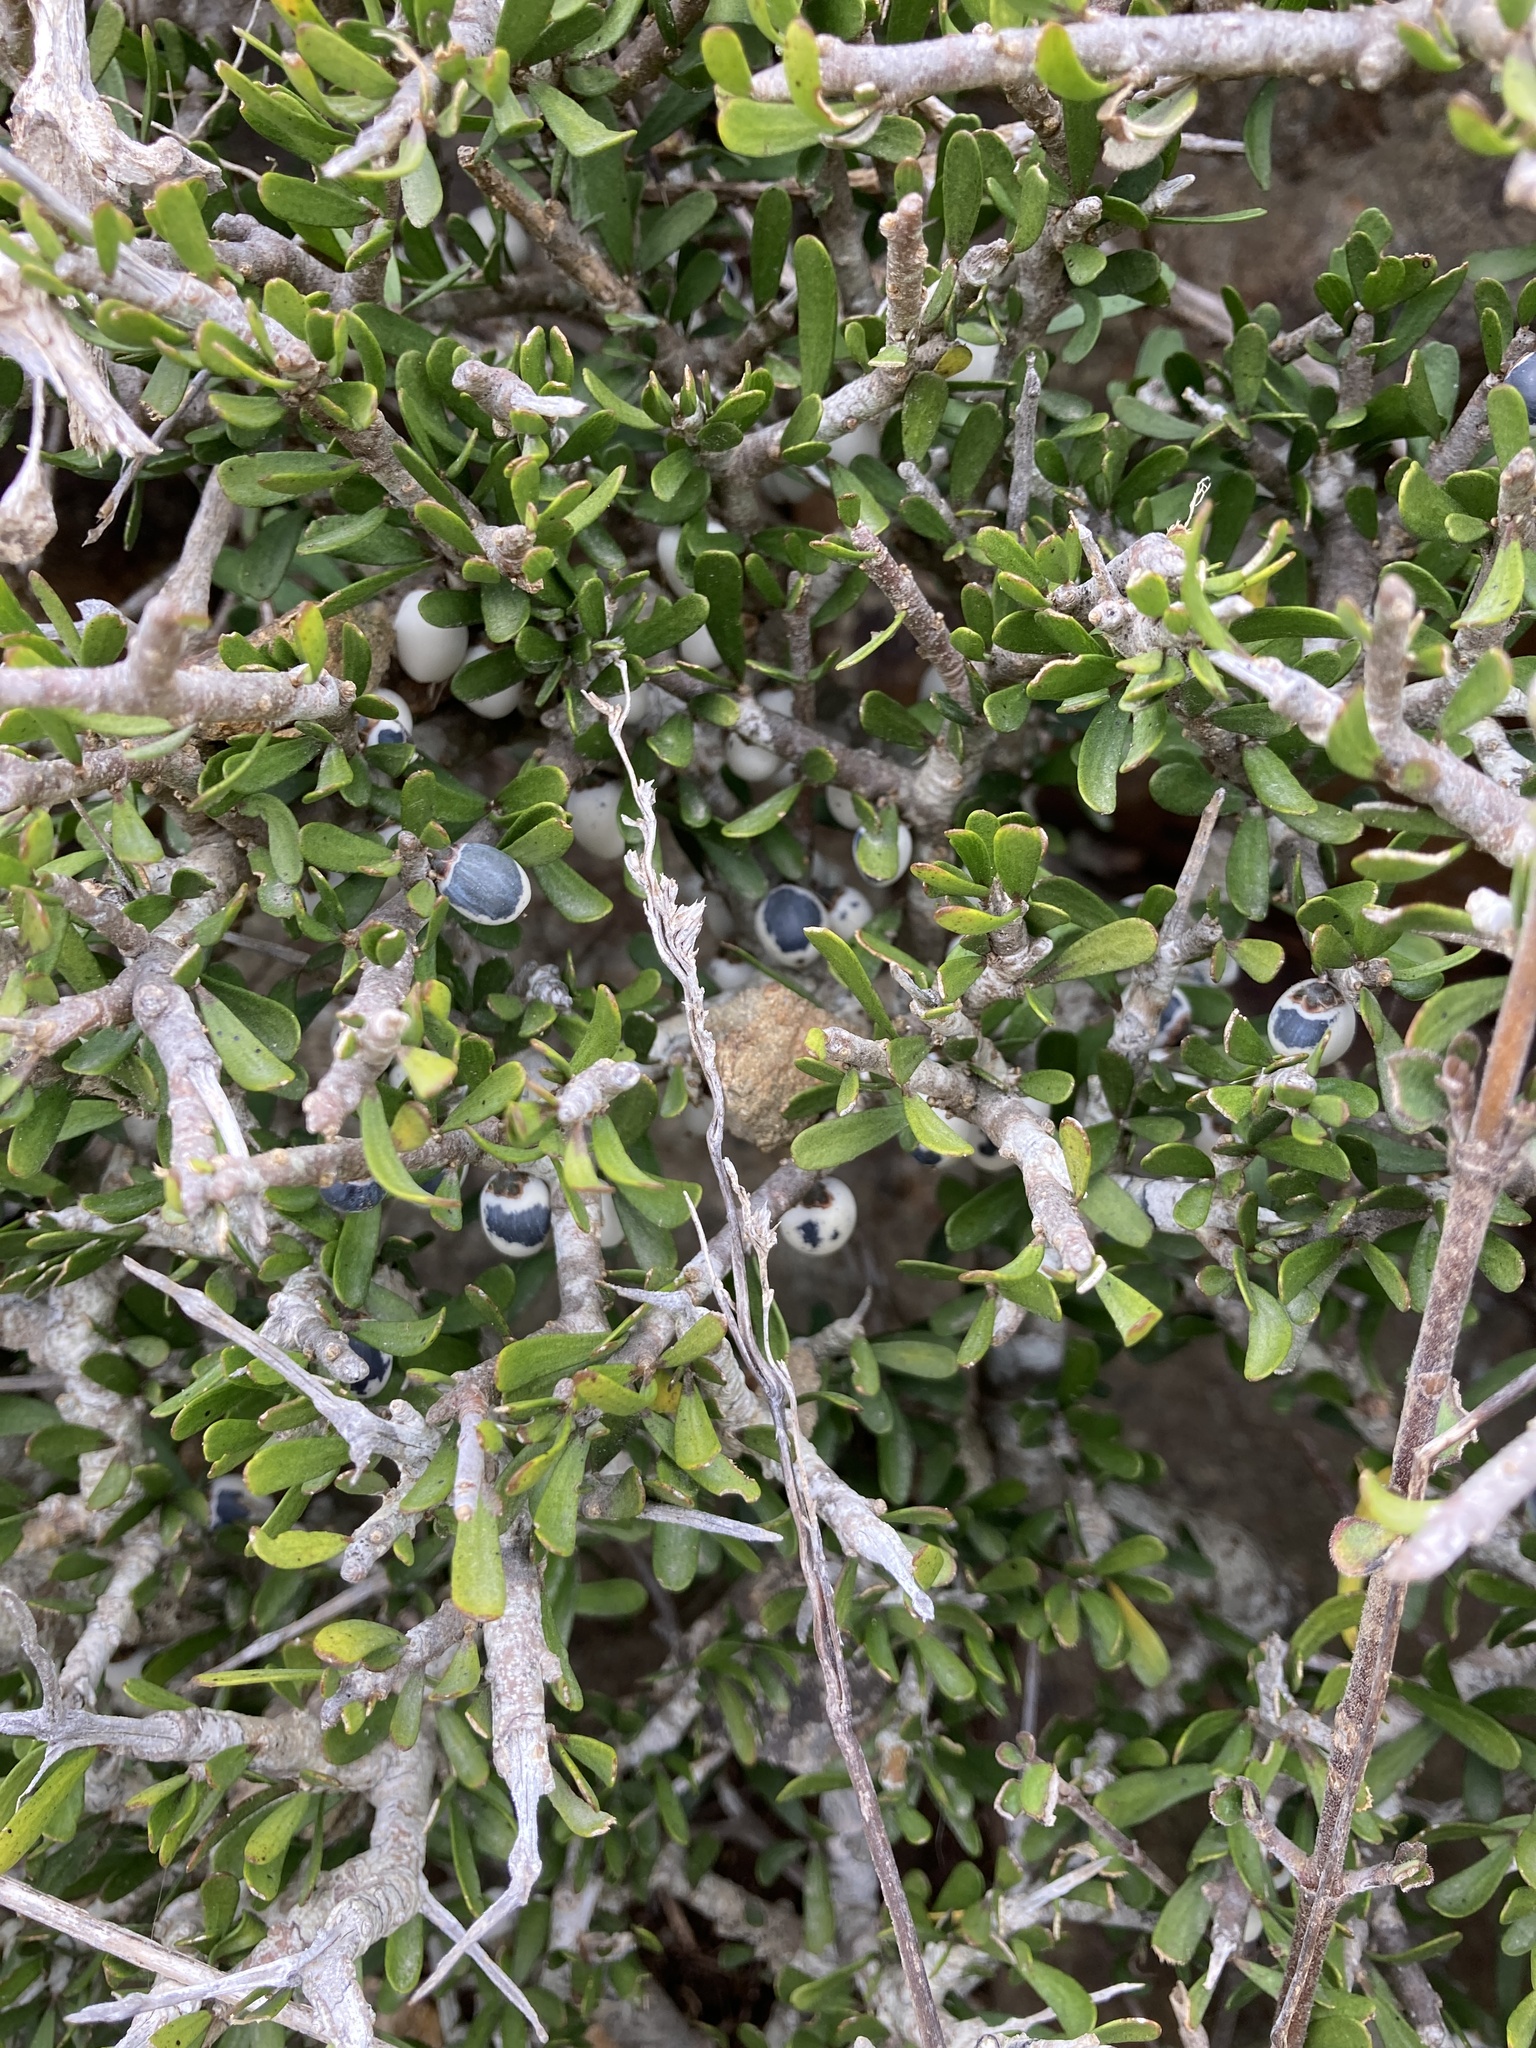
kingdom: Plantae
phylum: Tracheophyta
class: Magnoliopsida
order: Malpighiales
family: Violaceae
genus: Melicytus
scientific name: Melicytus alpinus
